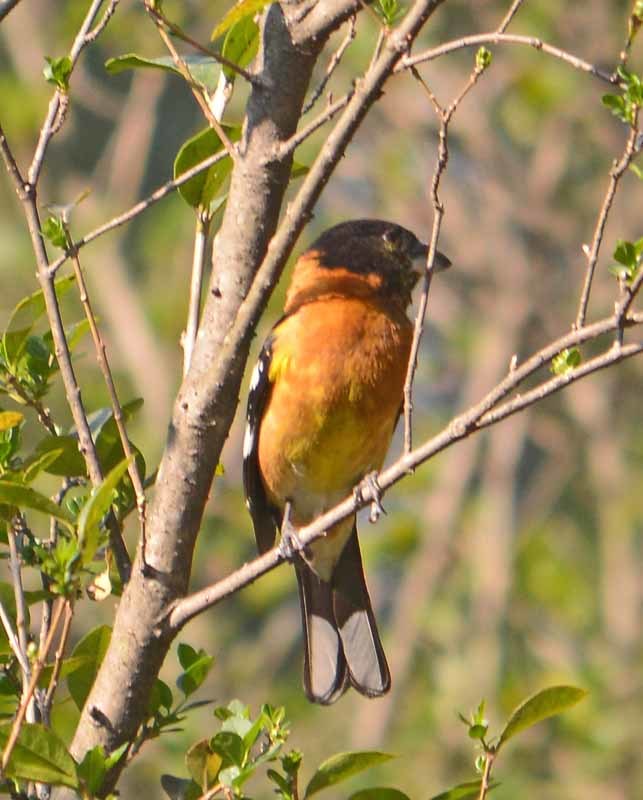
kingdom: Animalia
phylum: Chordata
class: Aves
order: Passeriformes
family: Cardinalidae
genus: Pheucticus
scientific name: Pheucticus melanocephalus
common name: Black-headed grosbeak
